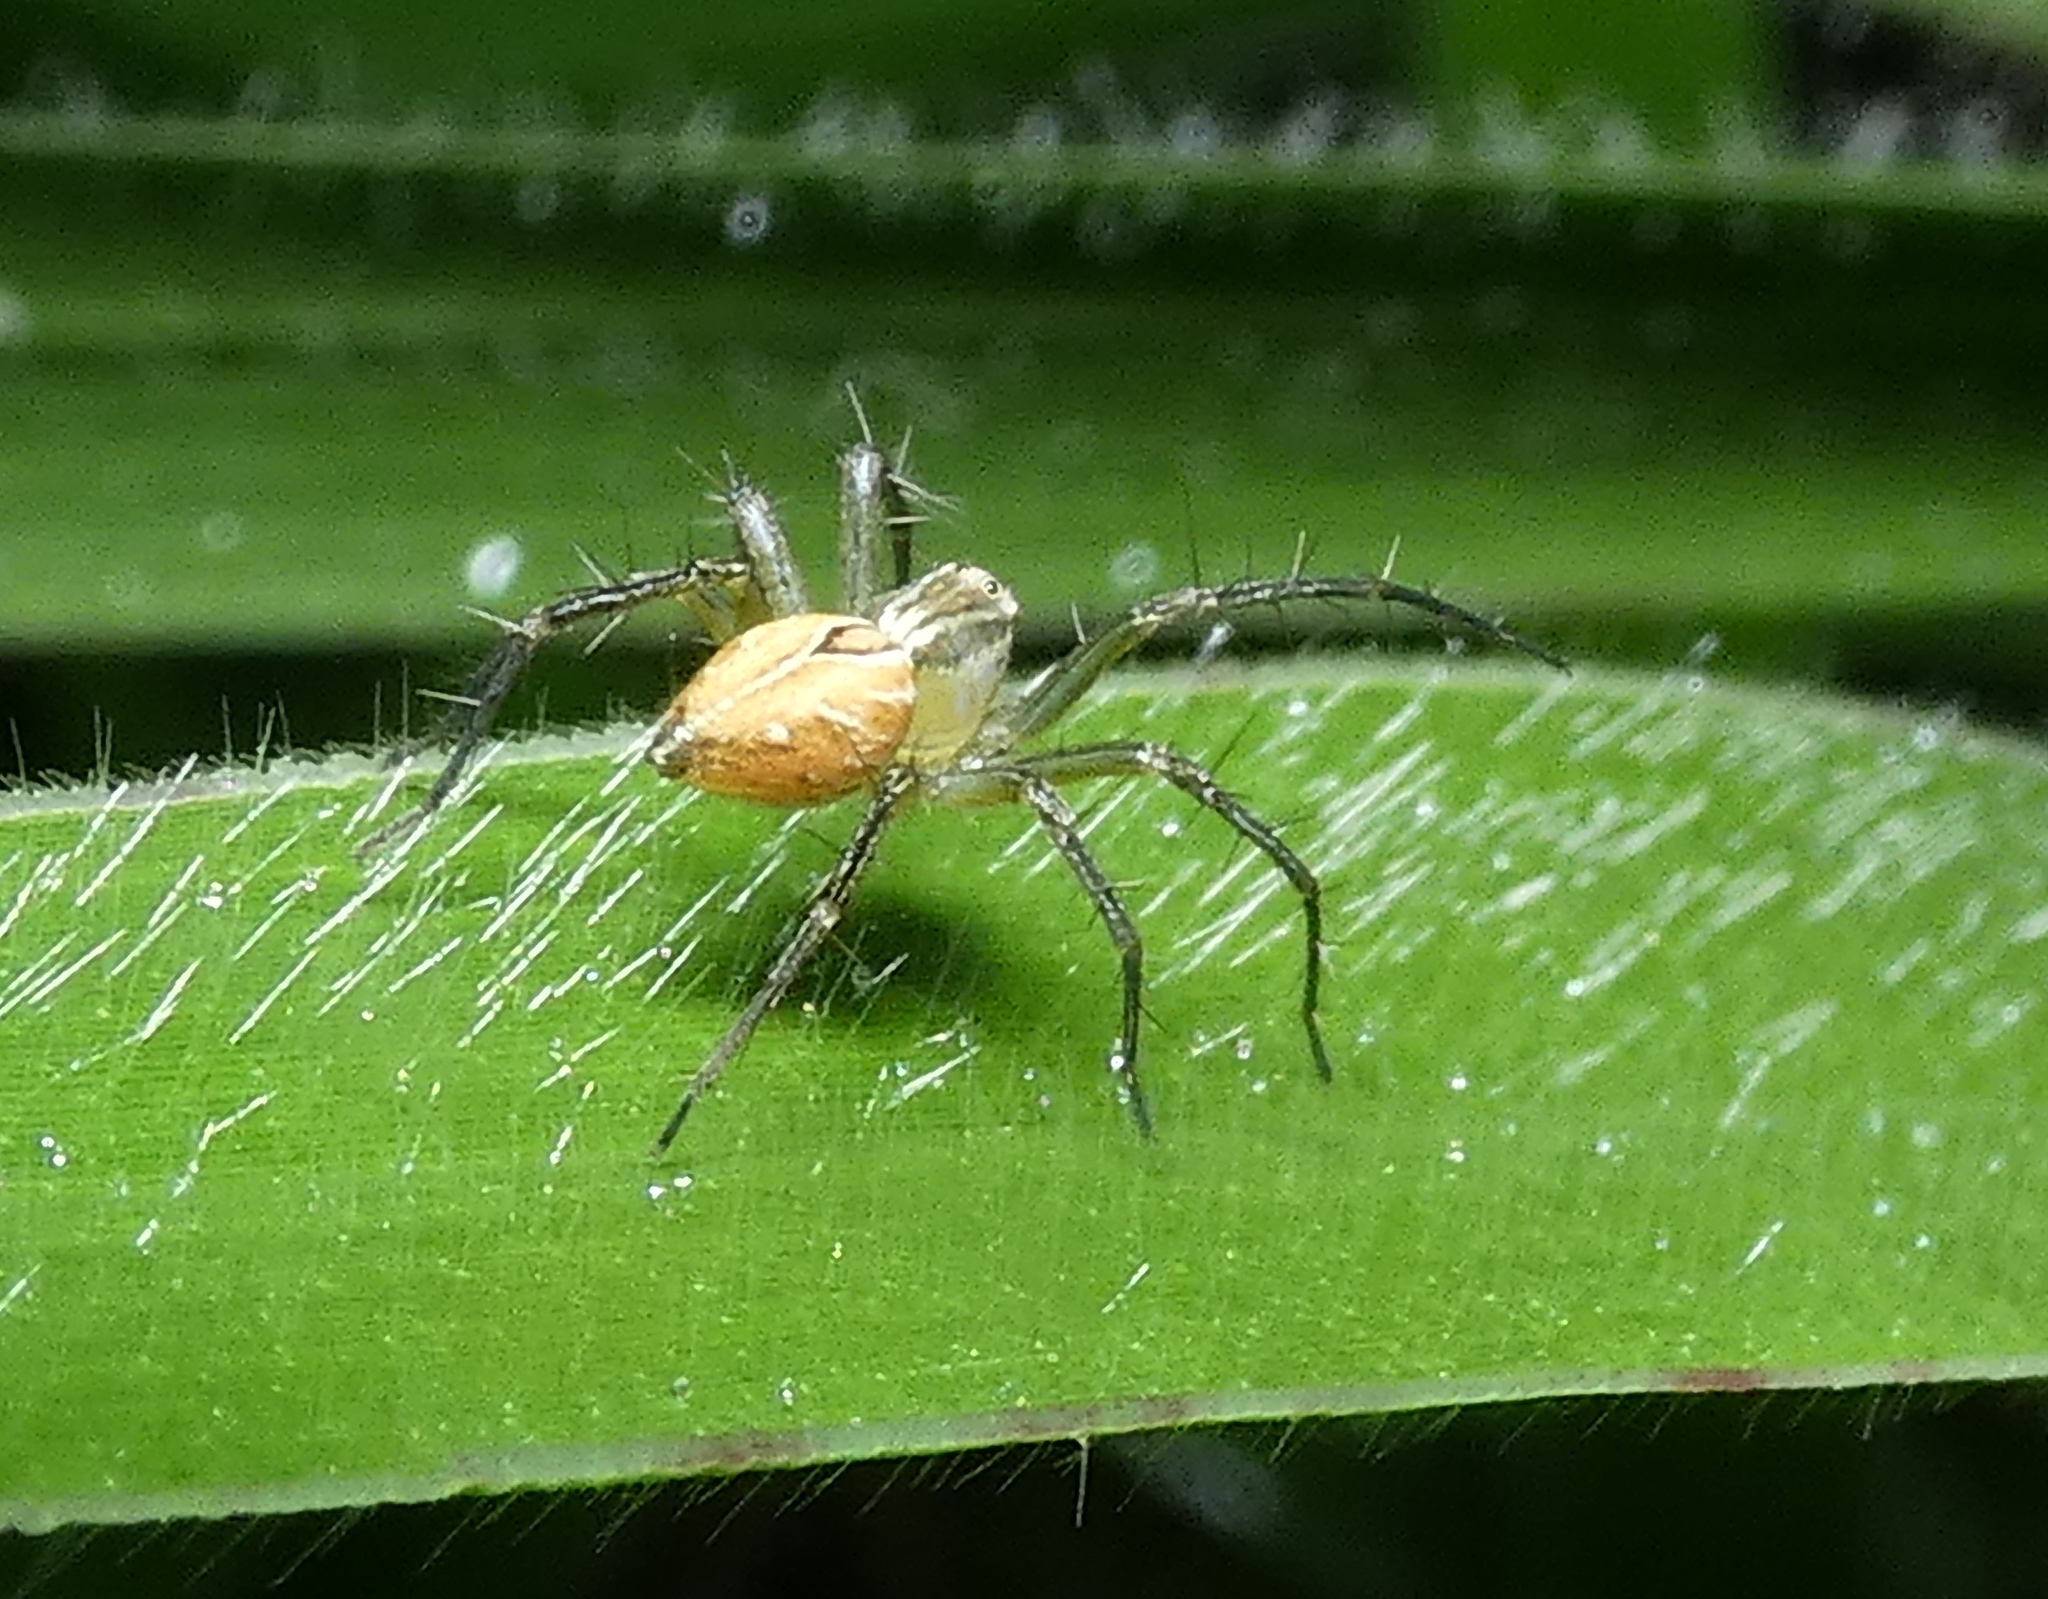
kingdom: Animalia
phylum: Arthropoda
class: Arachnida
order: Araneae
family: Oxyopidae
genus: Oxyopes
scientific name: Oxyopes salticus
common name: Lynx spiders
